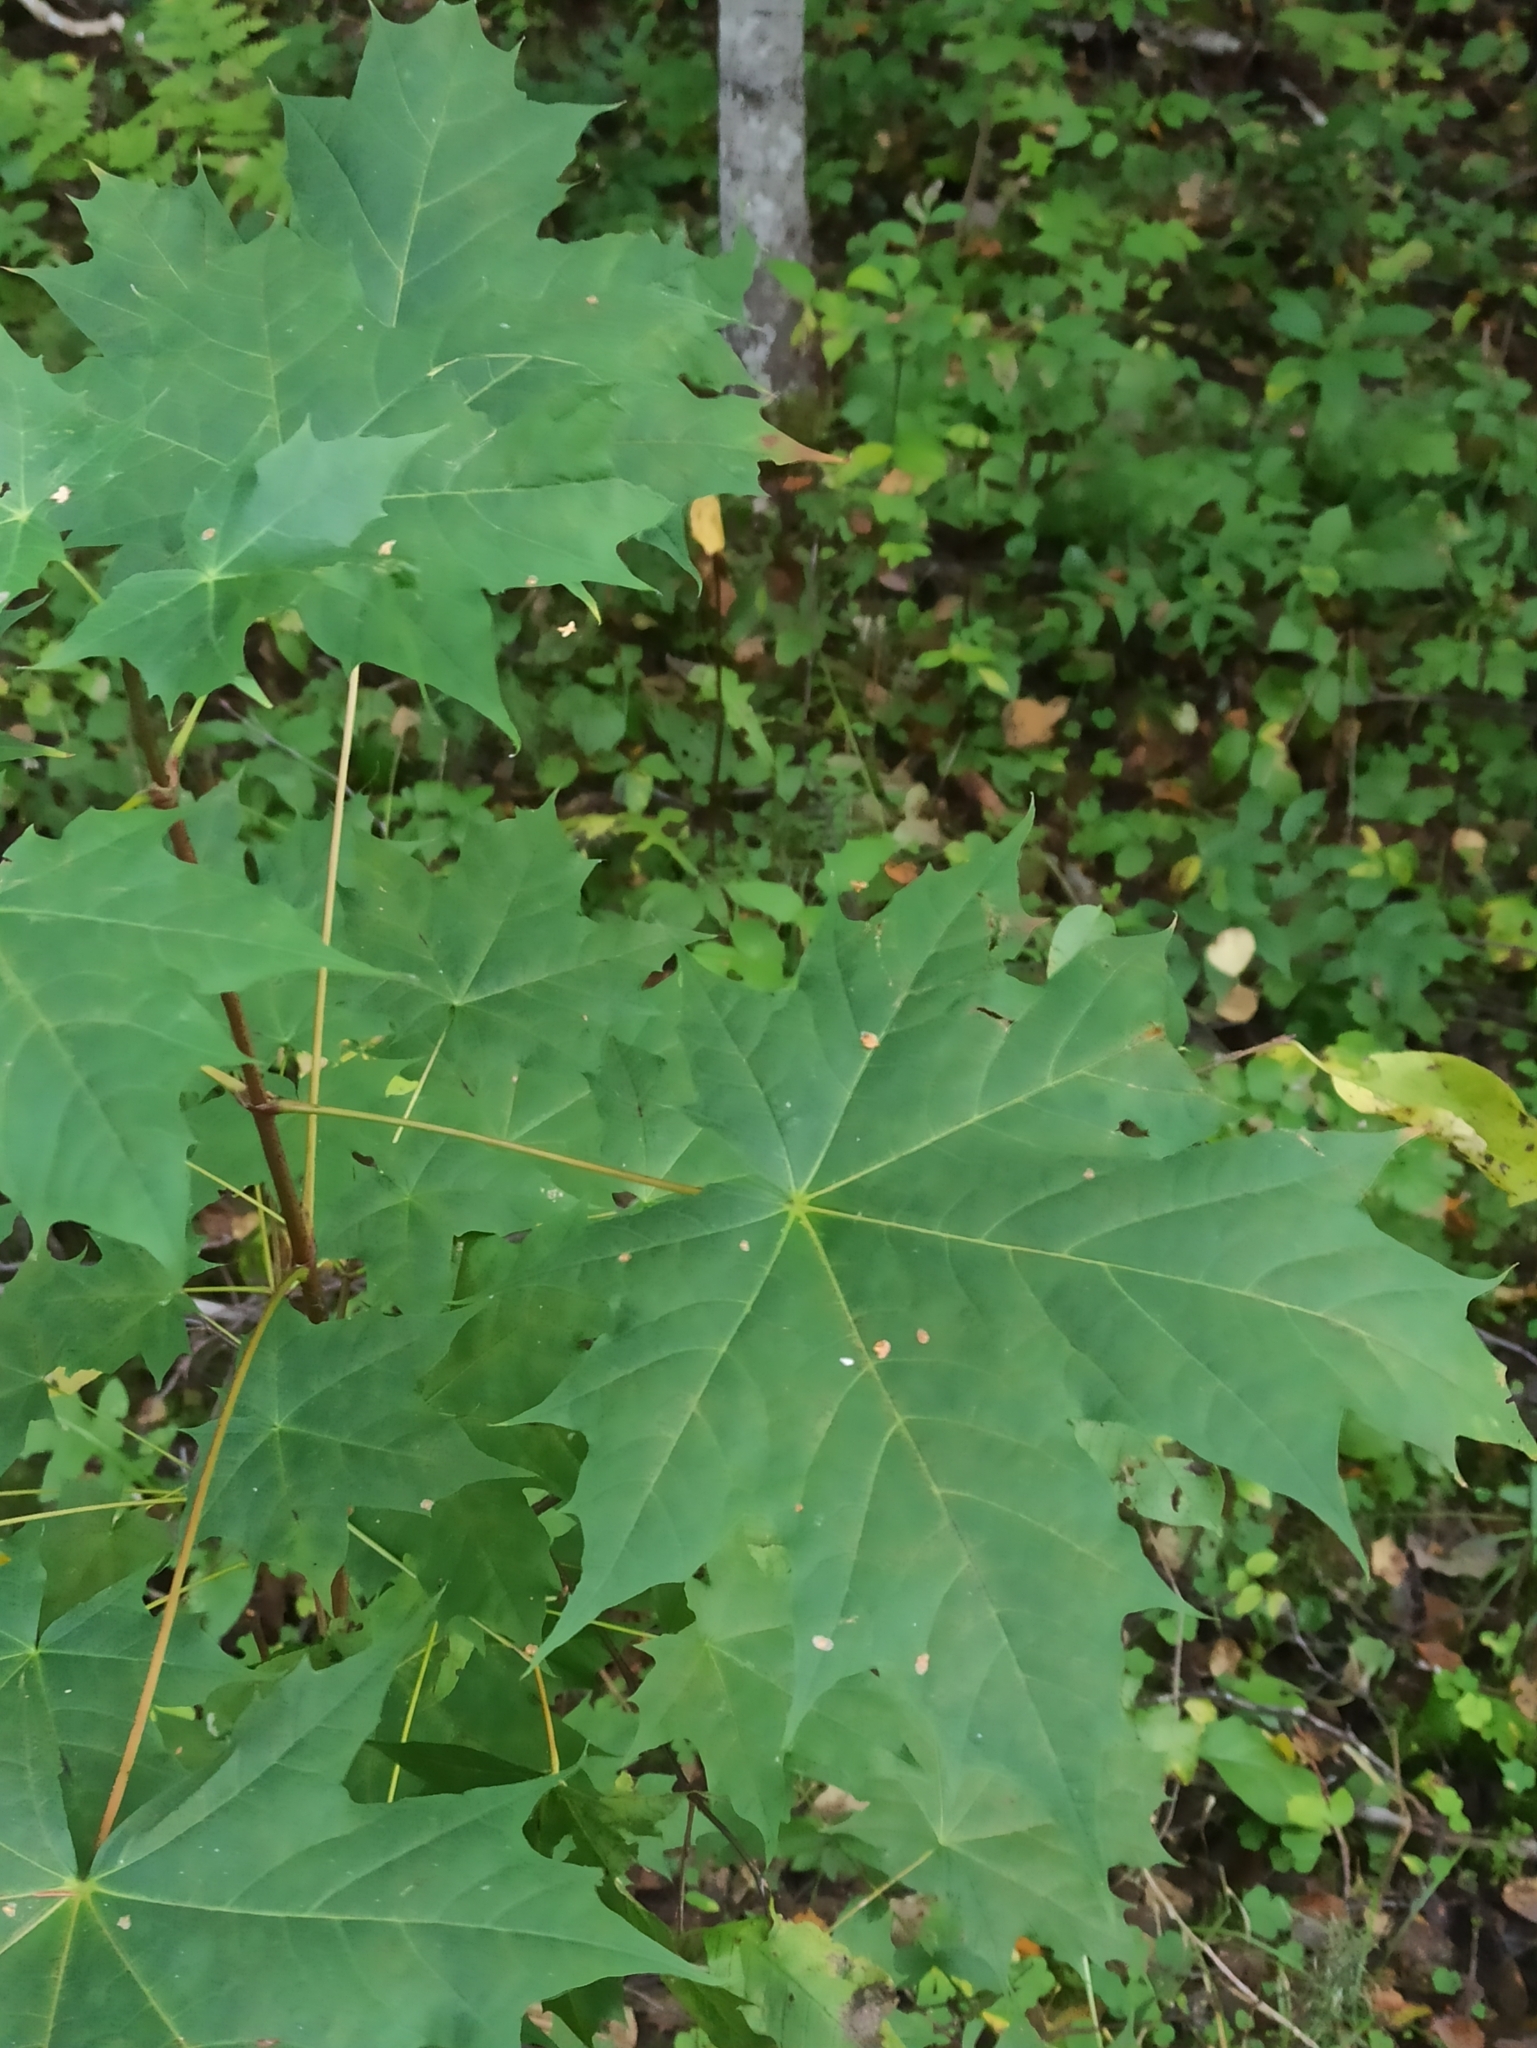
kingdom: Plantae
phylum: Tracheophyta
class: Magnoliopsida
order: Sapindales
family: Sapindaceae
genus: Acer
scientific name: Acer platanoides
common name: Norway maple
